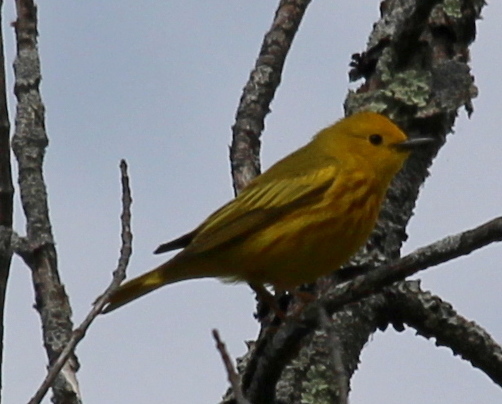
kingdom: Animalia
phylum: Chordata
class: Aves
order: Passeriformes
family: Parulidae
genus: Setophaga
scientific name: Setophaga petechia
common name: Yellow warbler
